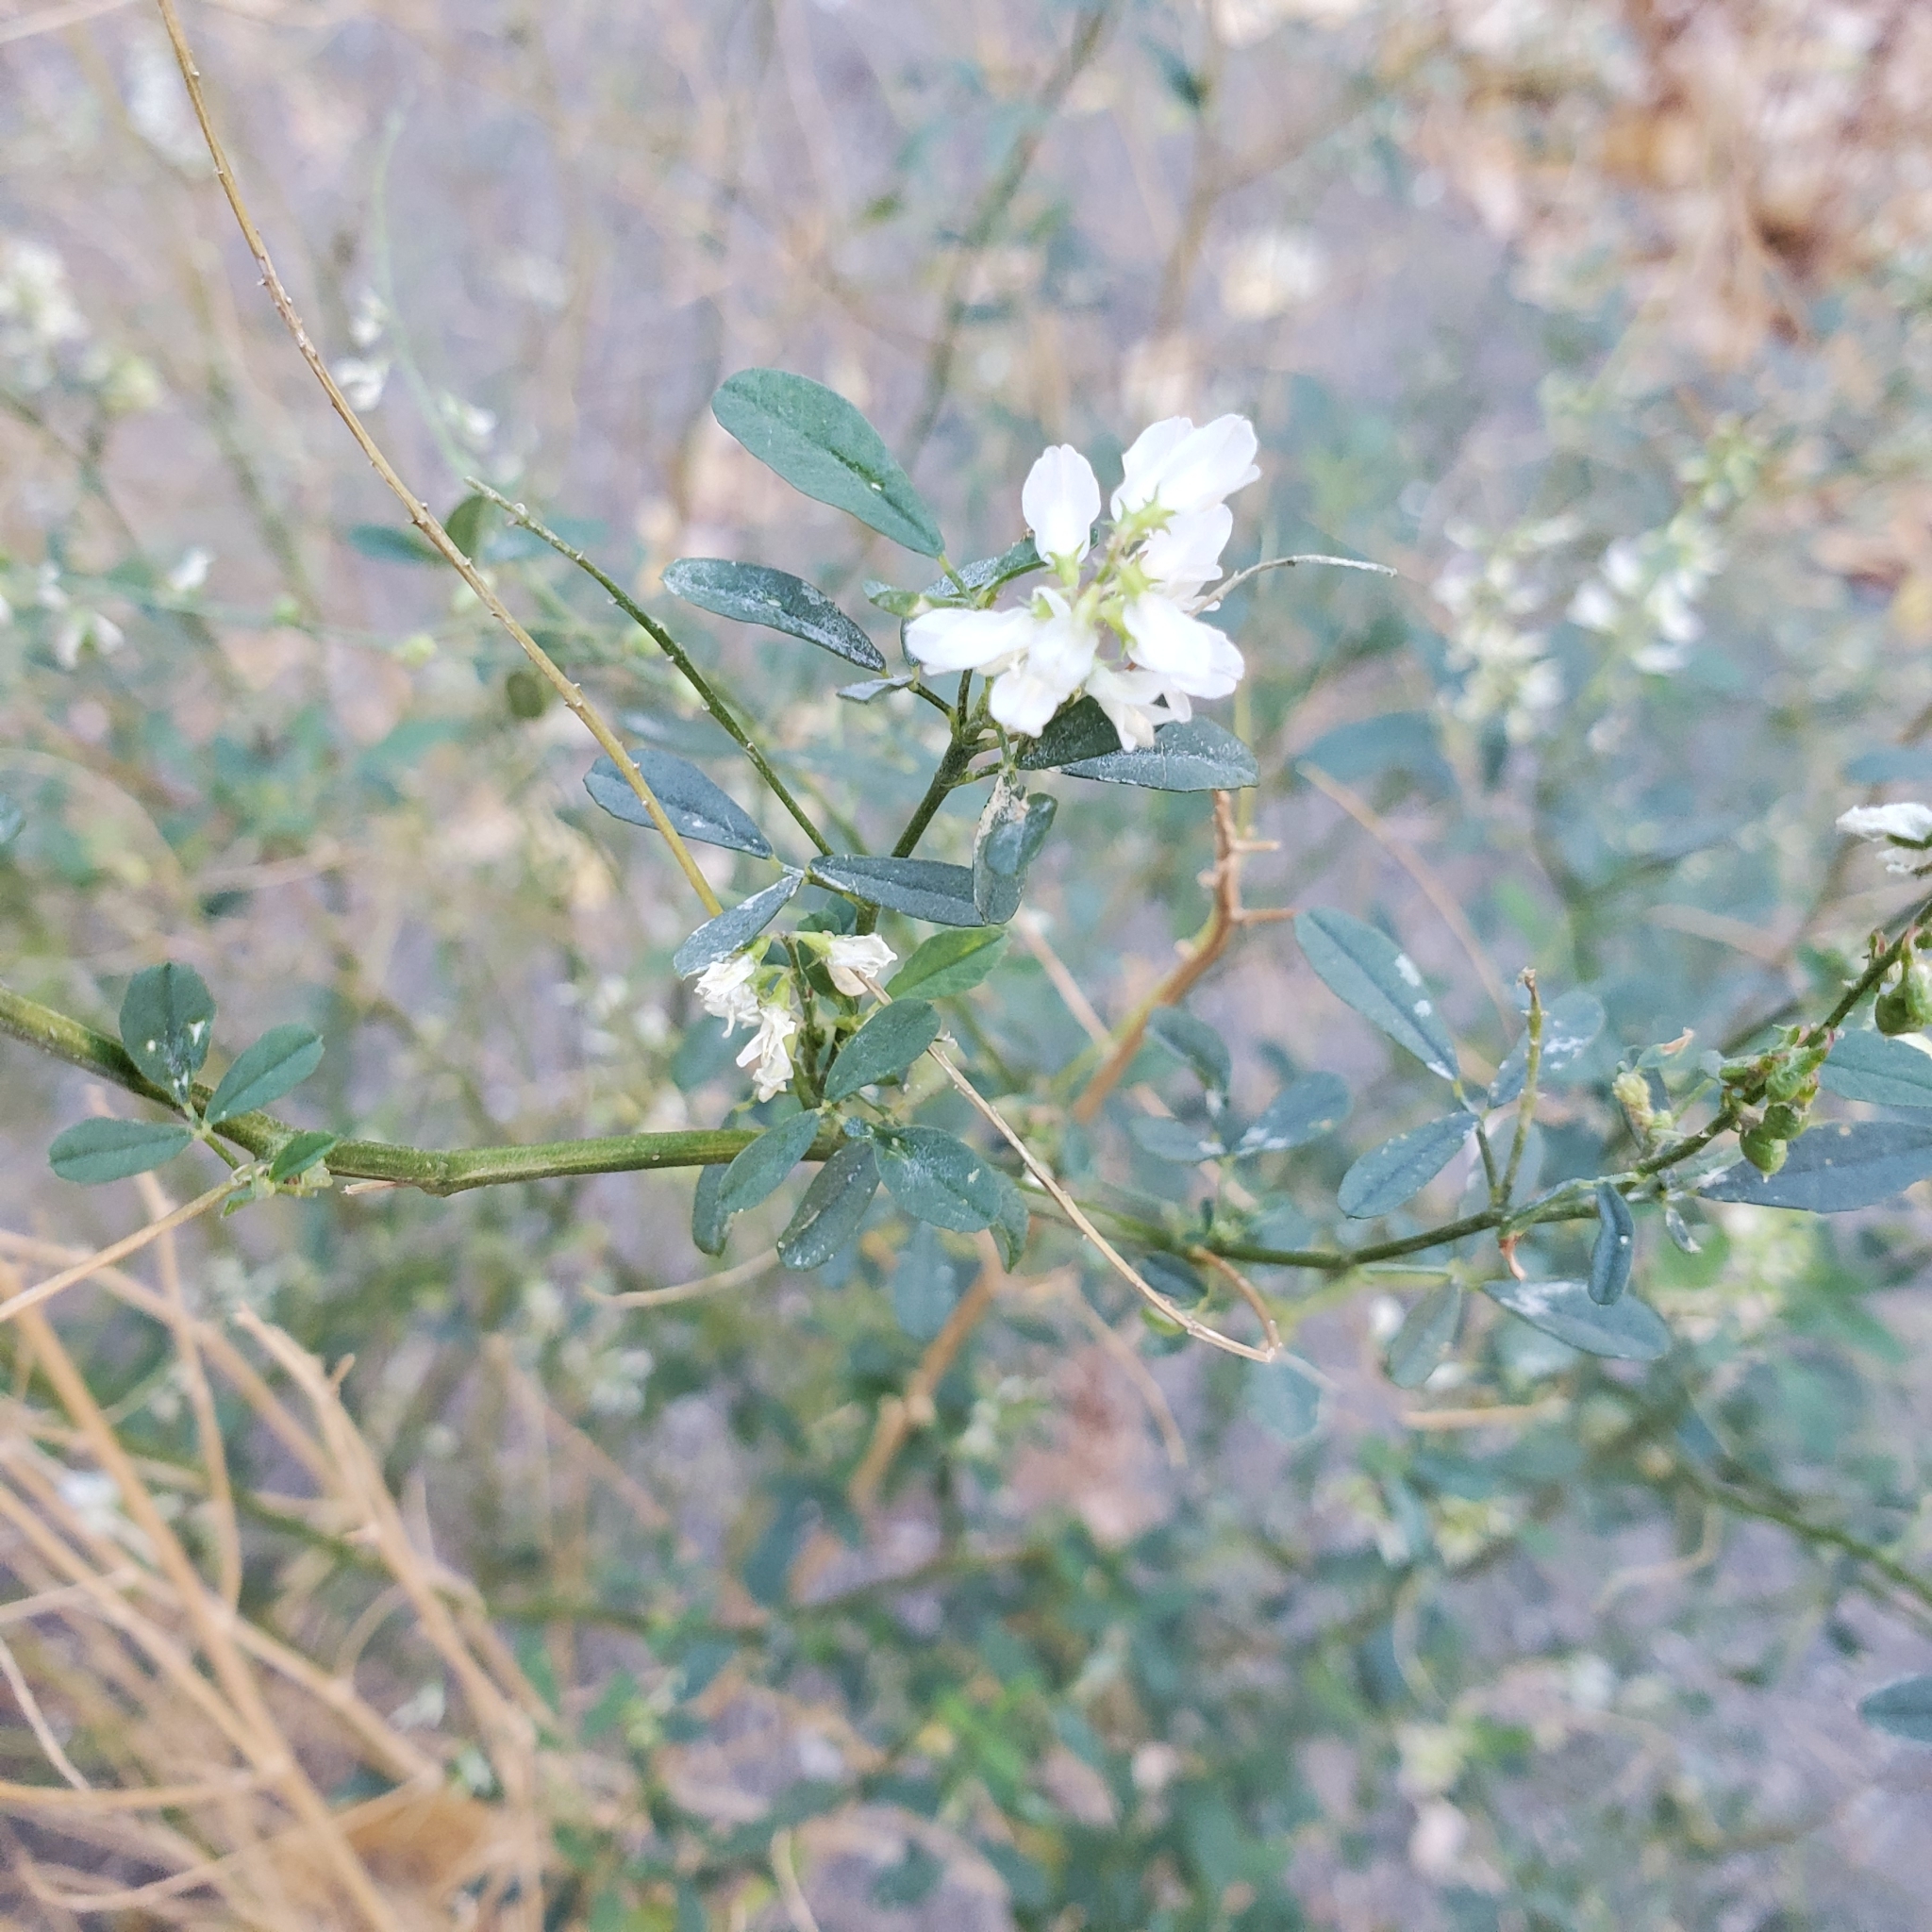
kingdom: Plantae
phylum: Tracheophyta
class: Magnoliopsida
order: Fabales
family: Fabaceae
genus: Melilotus
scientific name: Melilotus albus
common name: White melilot
